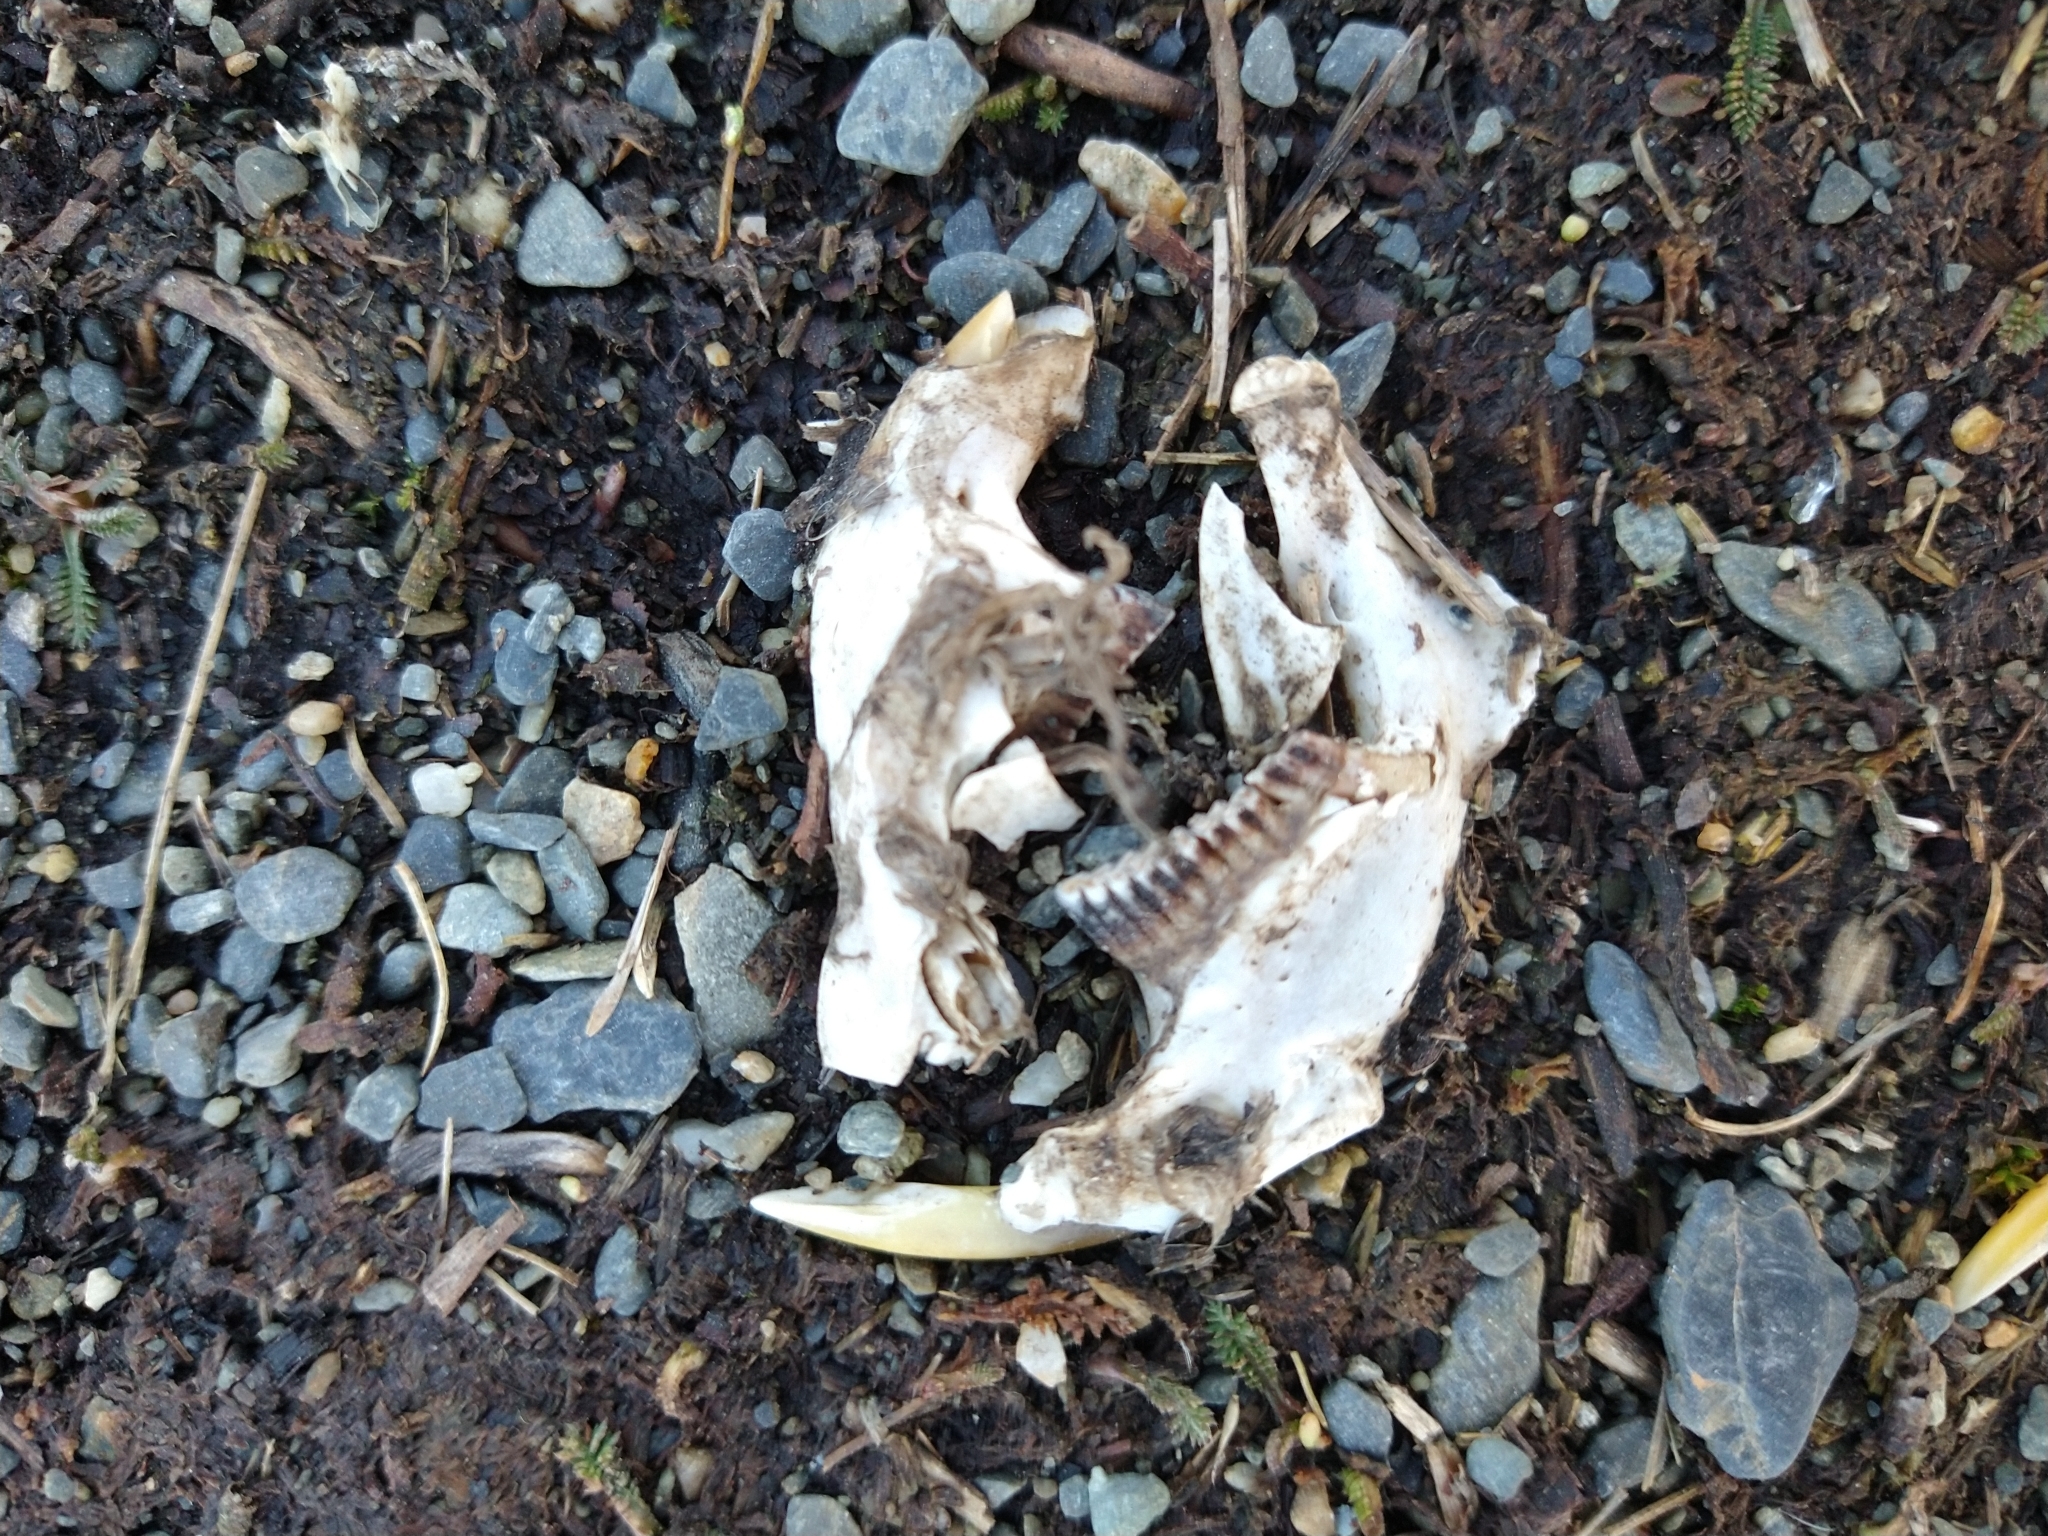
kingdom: Animalia
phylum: Chordata
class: Mammalia
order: Rodentia
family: Cricetidae
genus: Ondatra
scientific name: Ondatra zibethicus
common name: Muskrat
